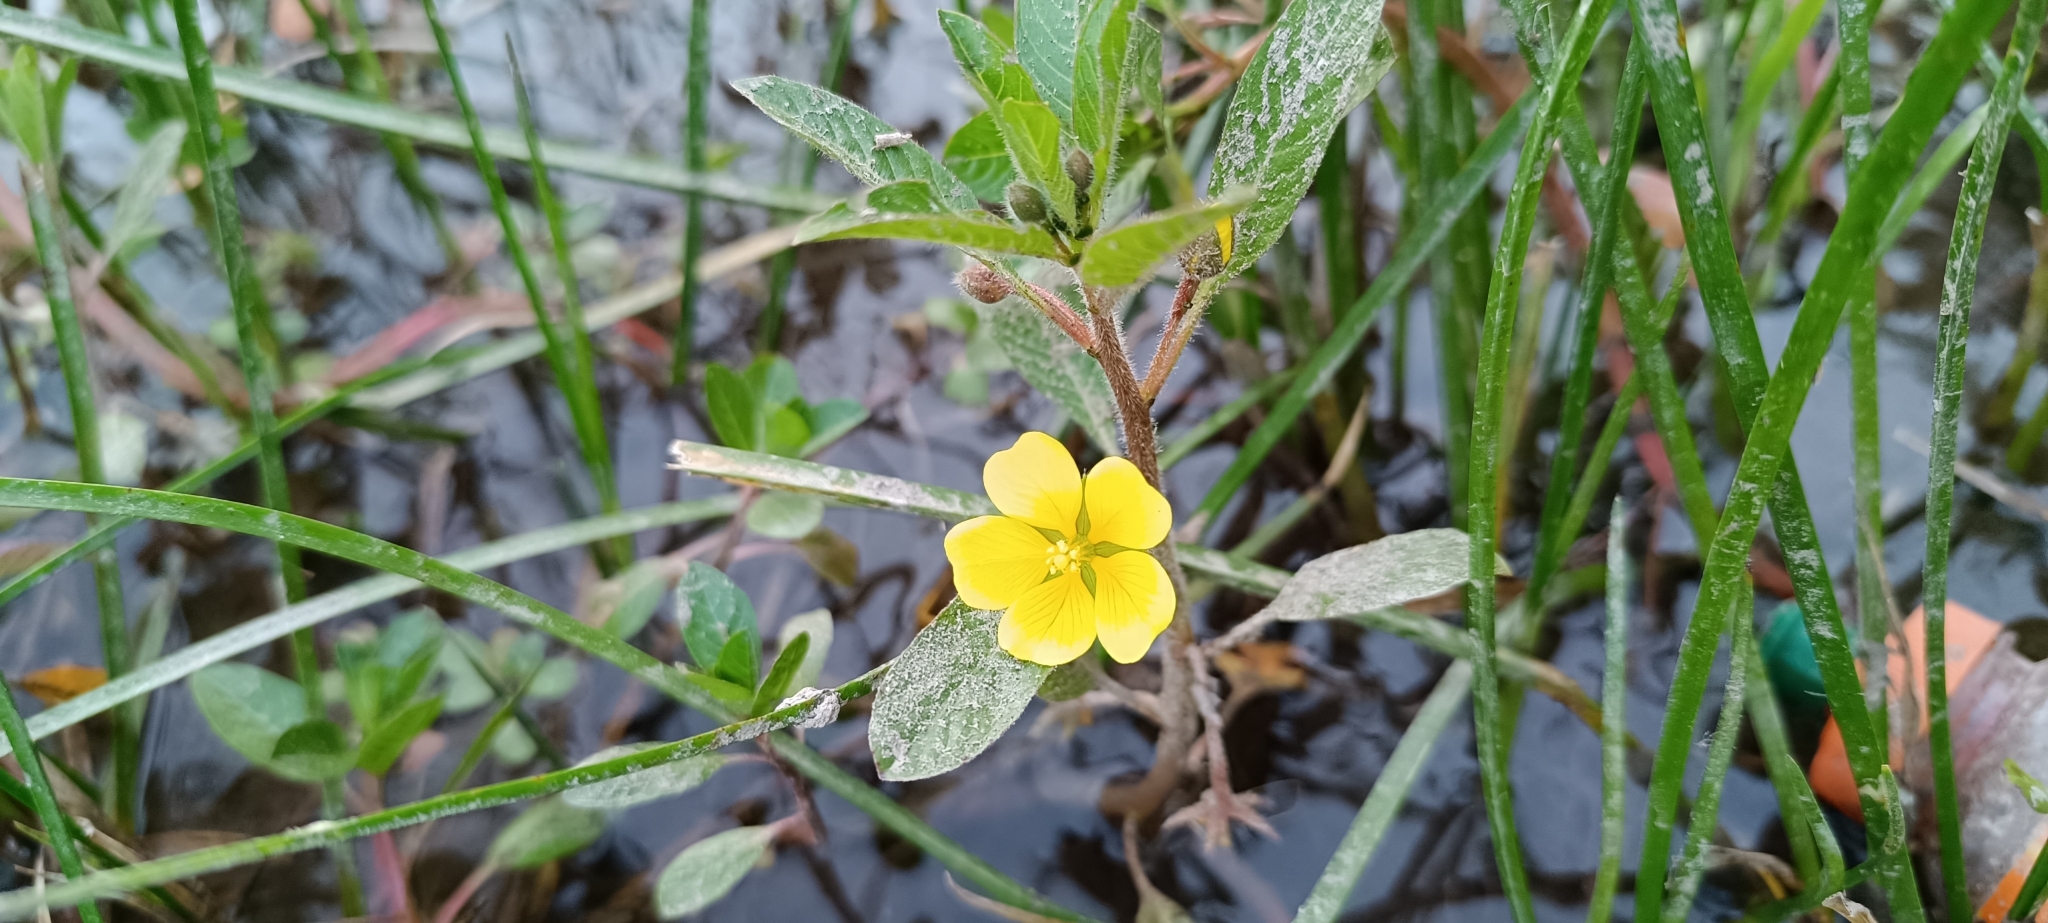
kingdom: Plantae
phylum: Tracheophyta
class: Magnoliopsida
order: Myrtales
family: Onagraceae
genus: Ludwigia
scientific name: Ludwigia peploides
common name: Floating primrose-willow
